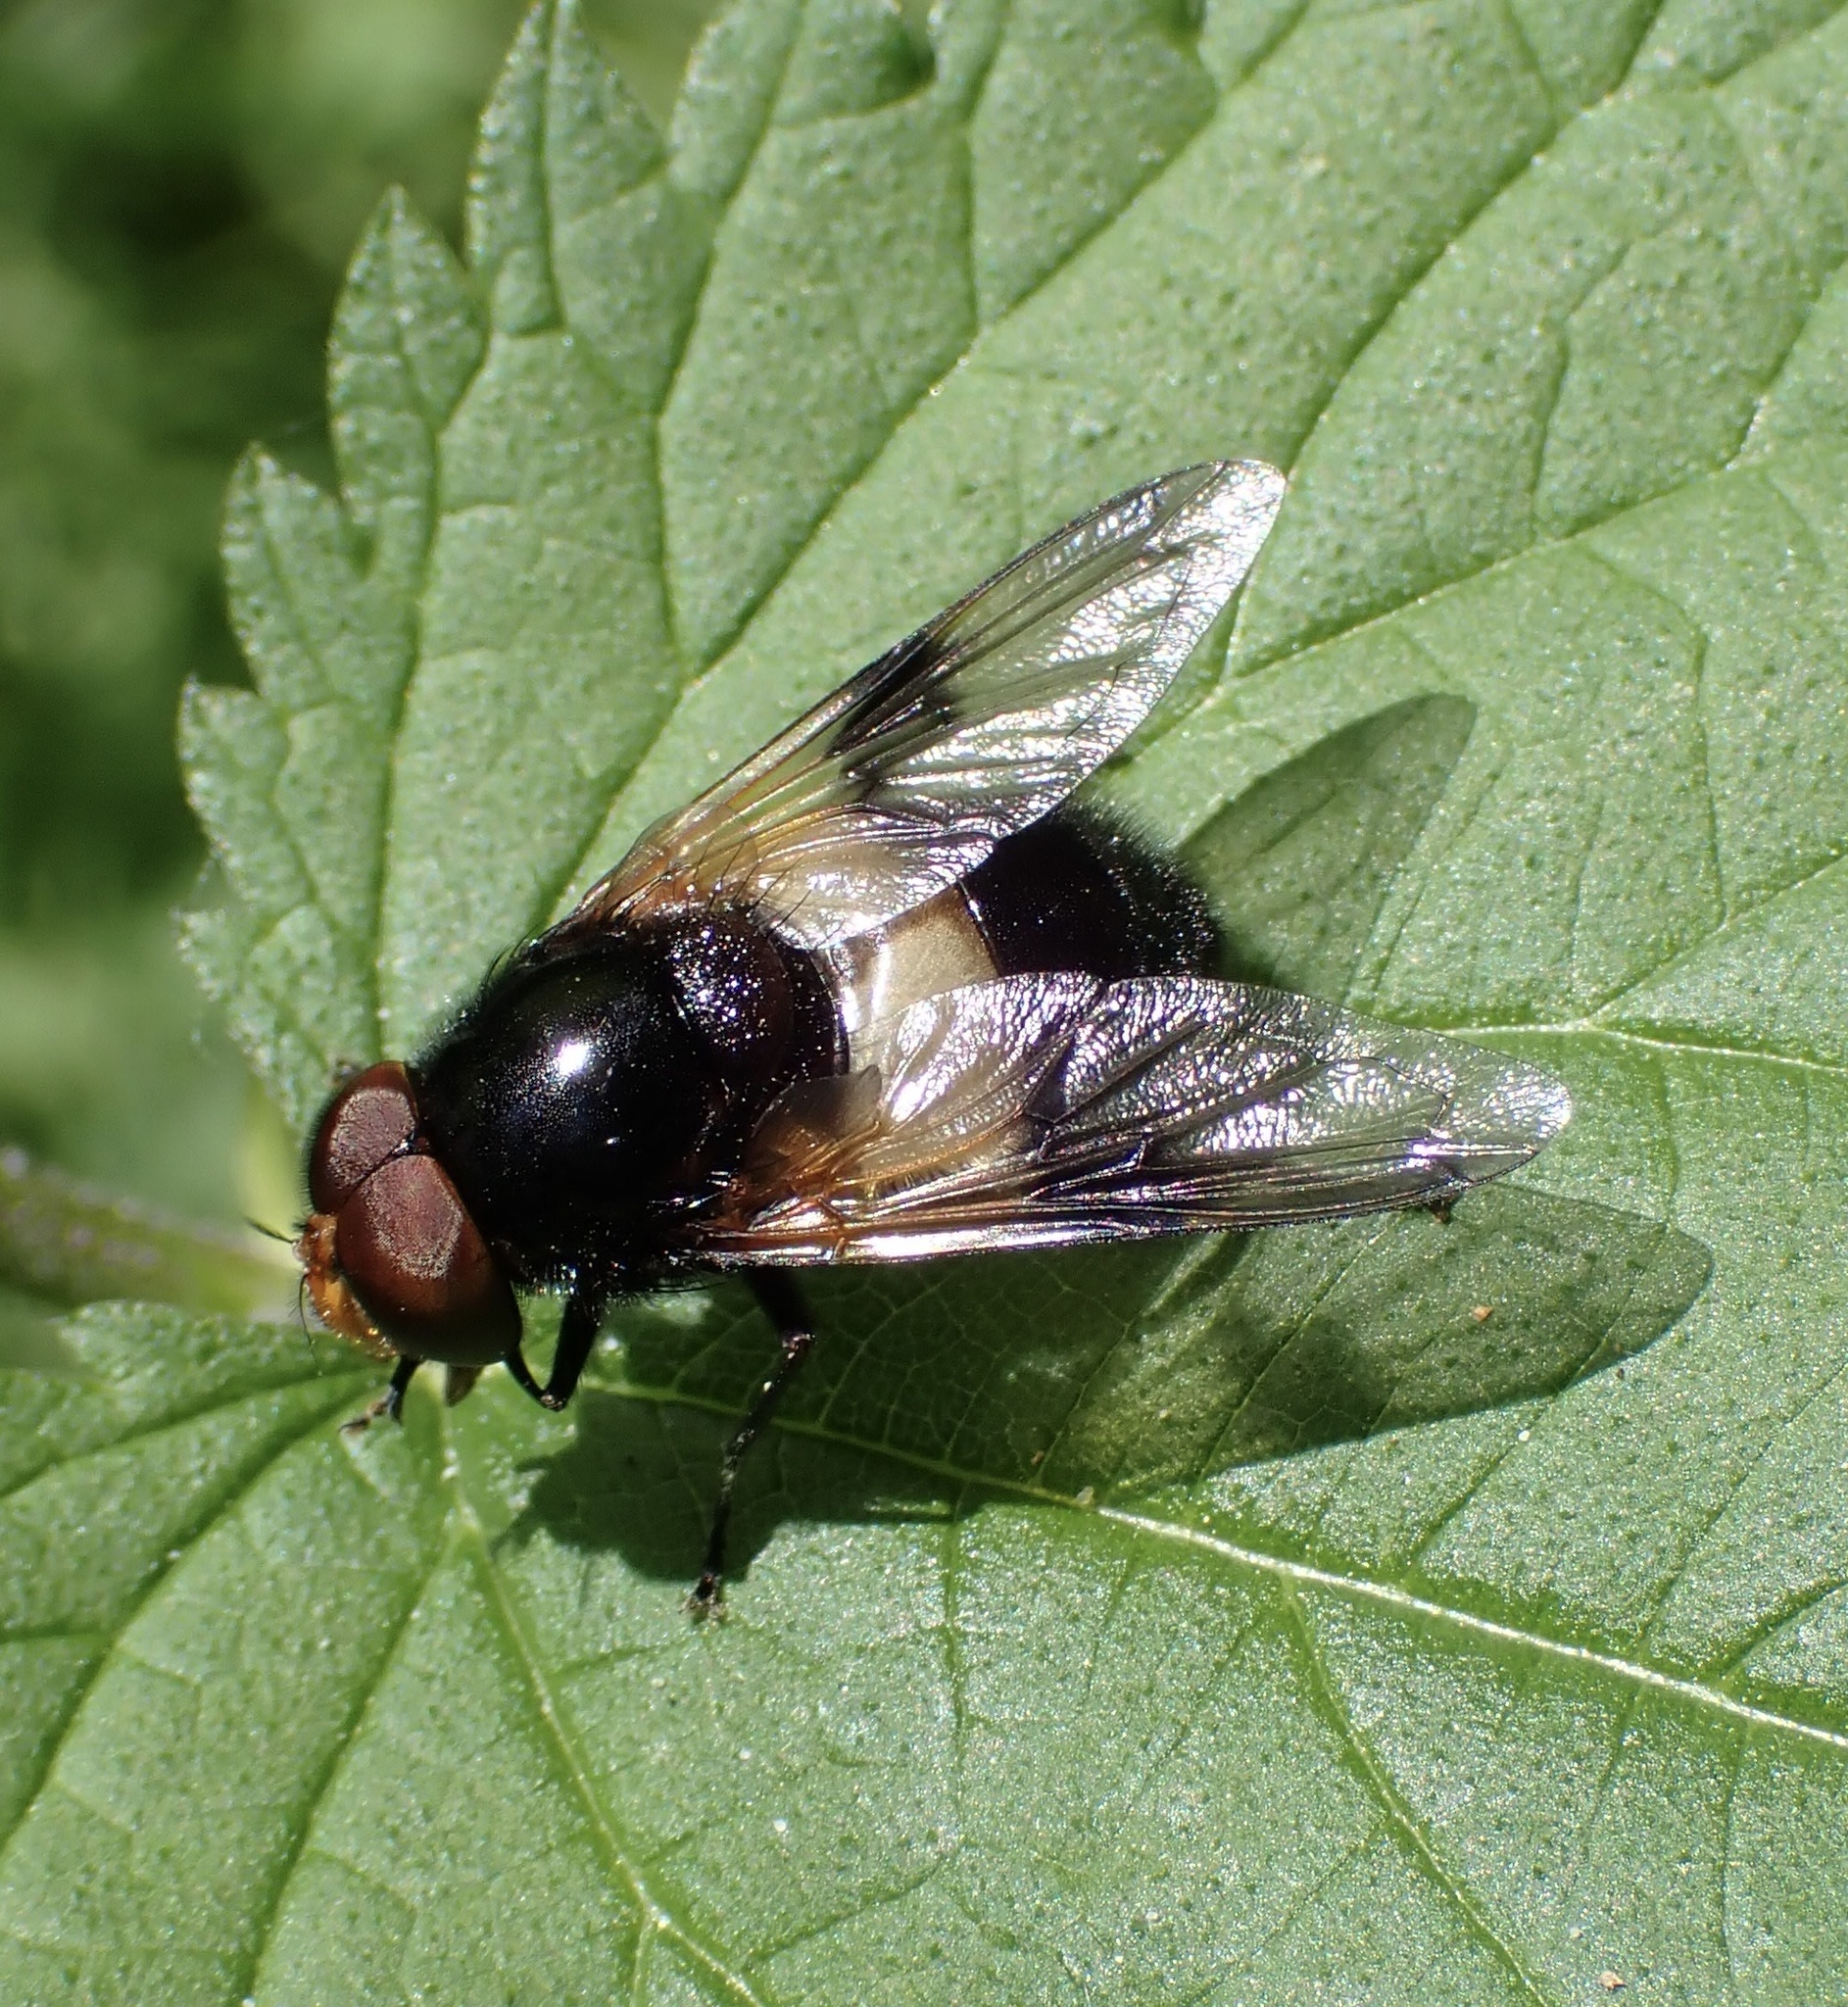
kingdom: Animalia
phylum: Arthropoda
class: Insecta
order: Diptera
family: Syrphidae
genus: Volucella
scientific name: Volucella pellucens
